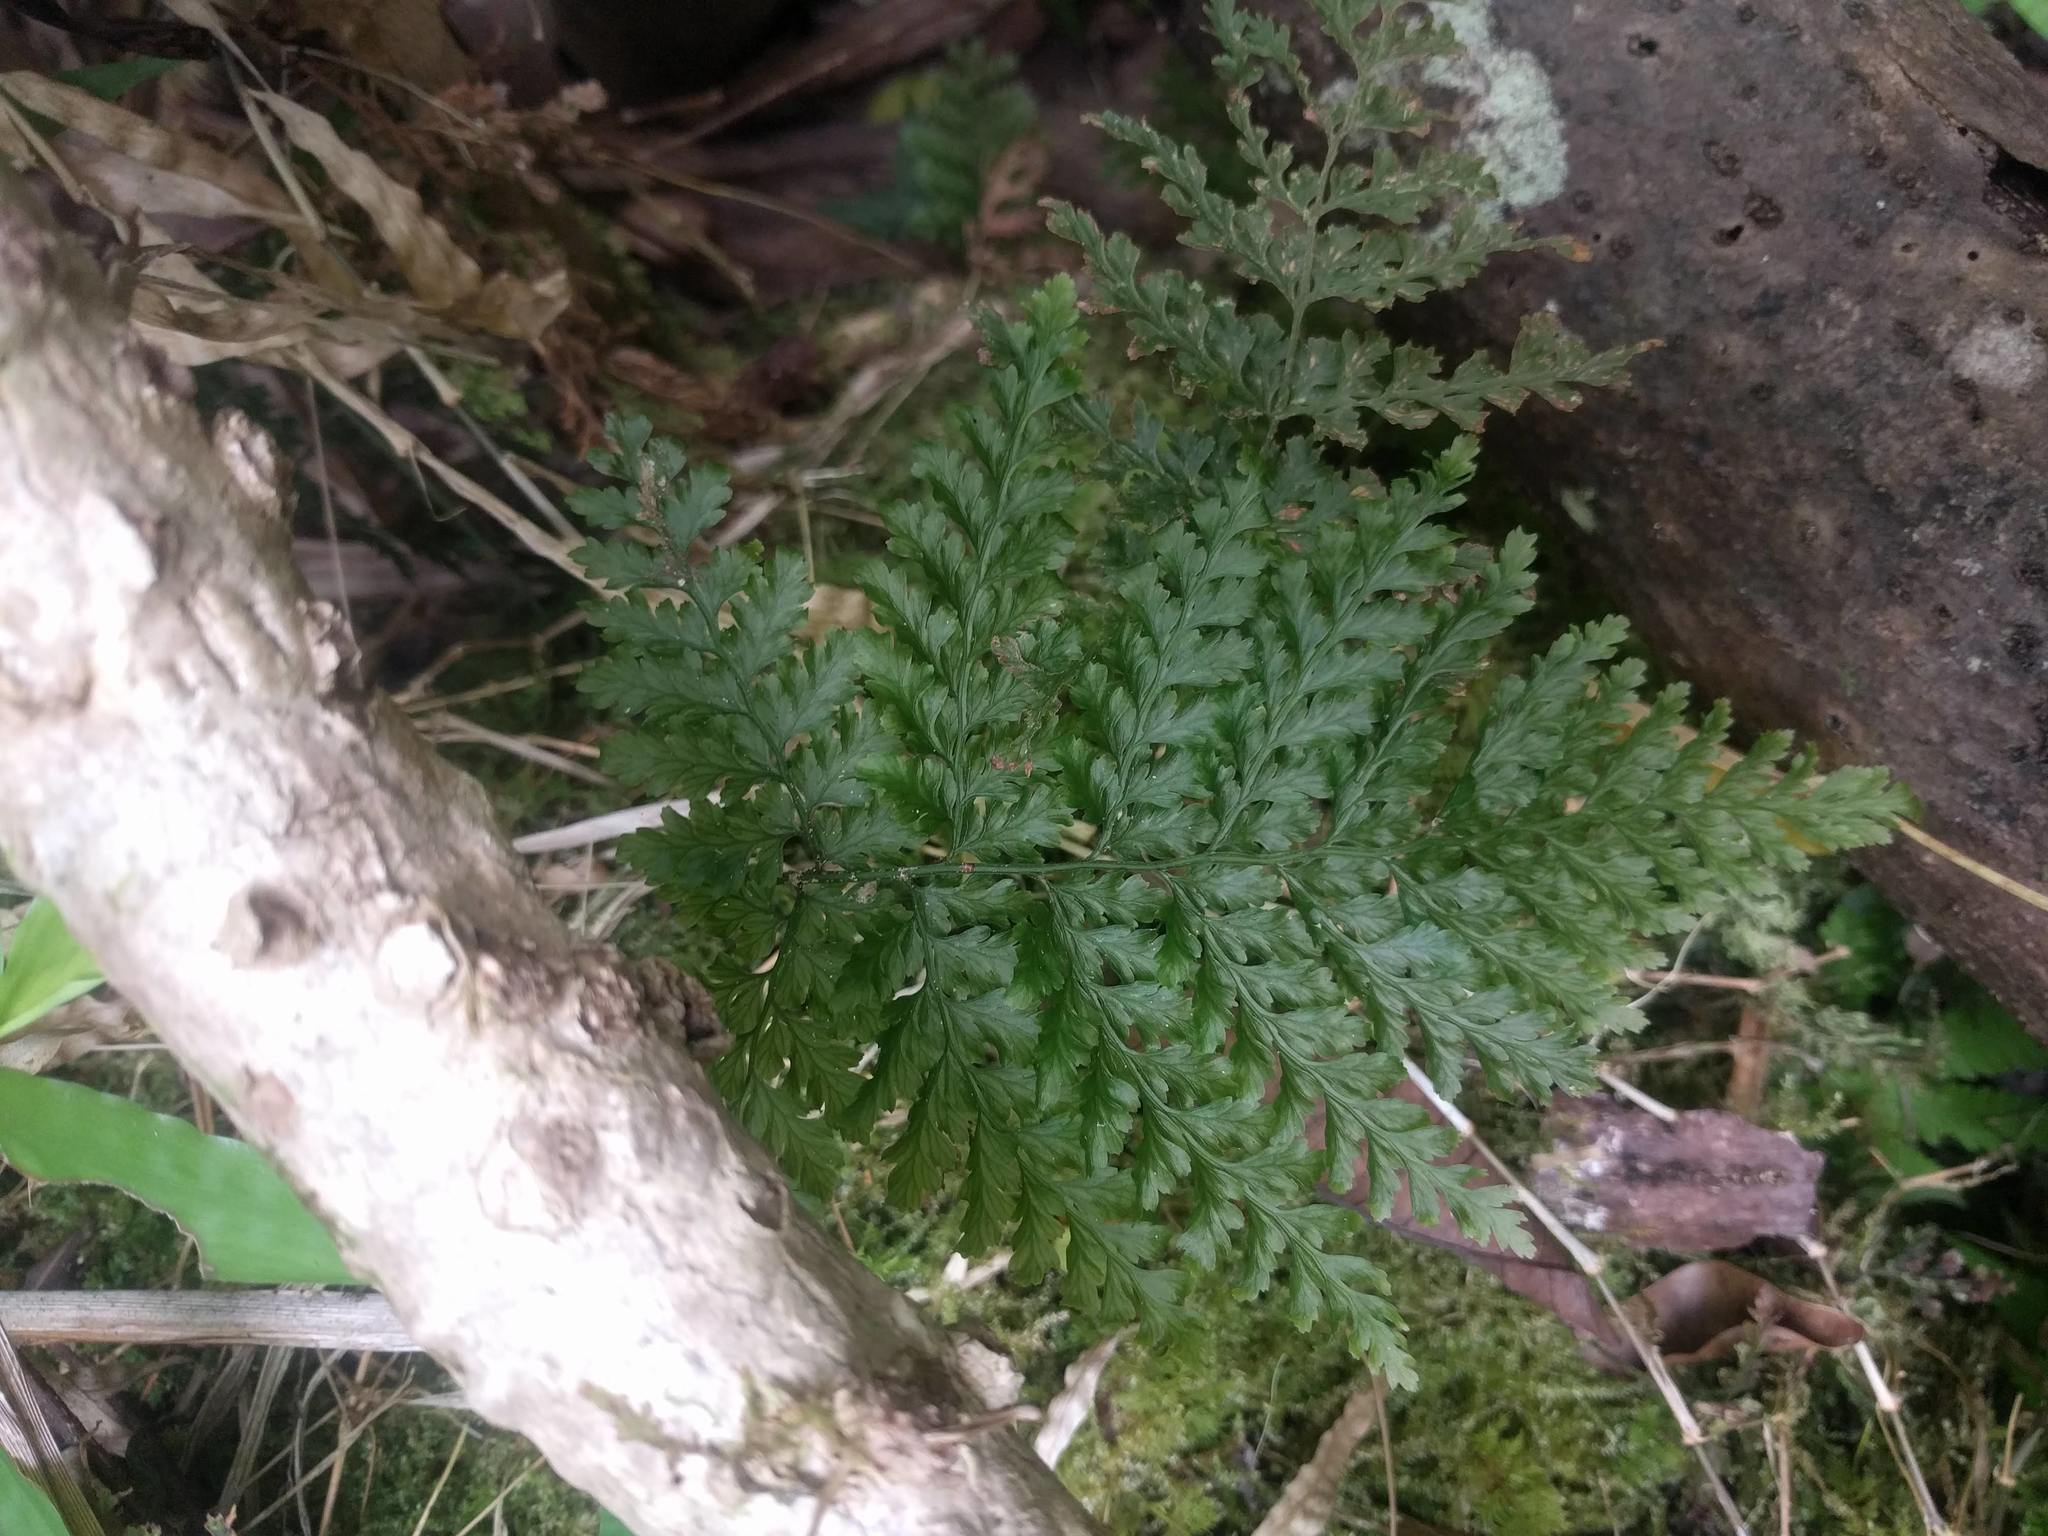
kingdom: Plantae
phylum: Tracheophyta
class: Polypodiopsida
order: Hymenophyllales
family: Hymenophyllaceae
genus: Vandenboschia
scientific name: Vandenboschia cyrtotheca
